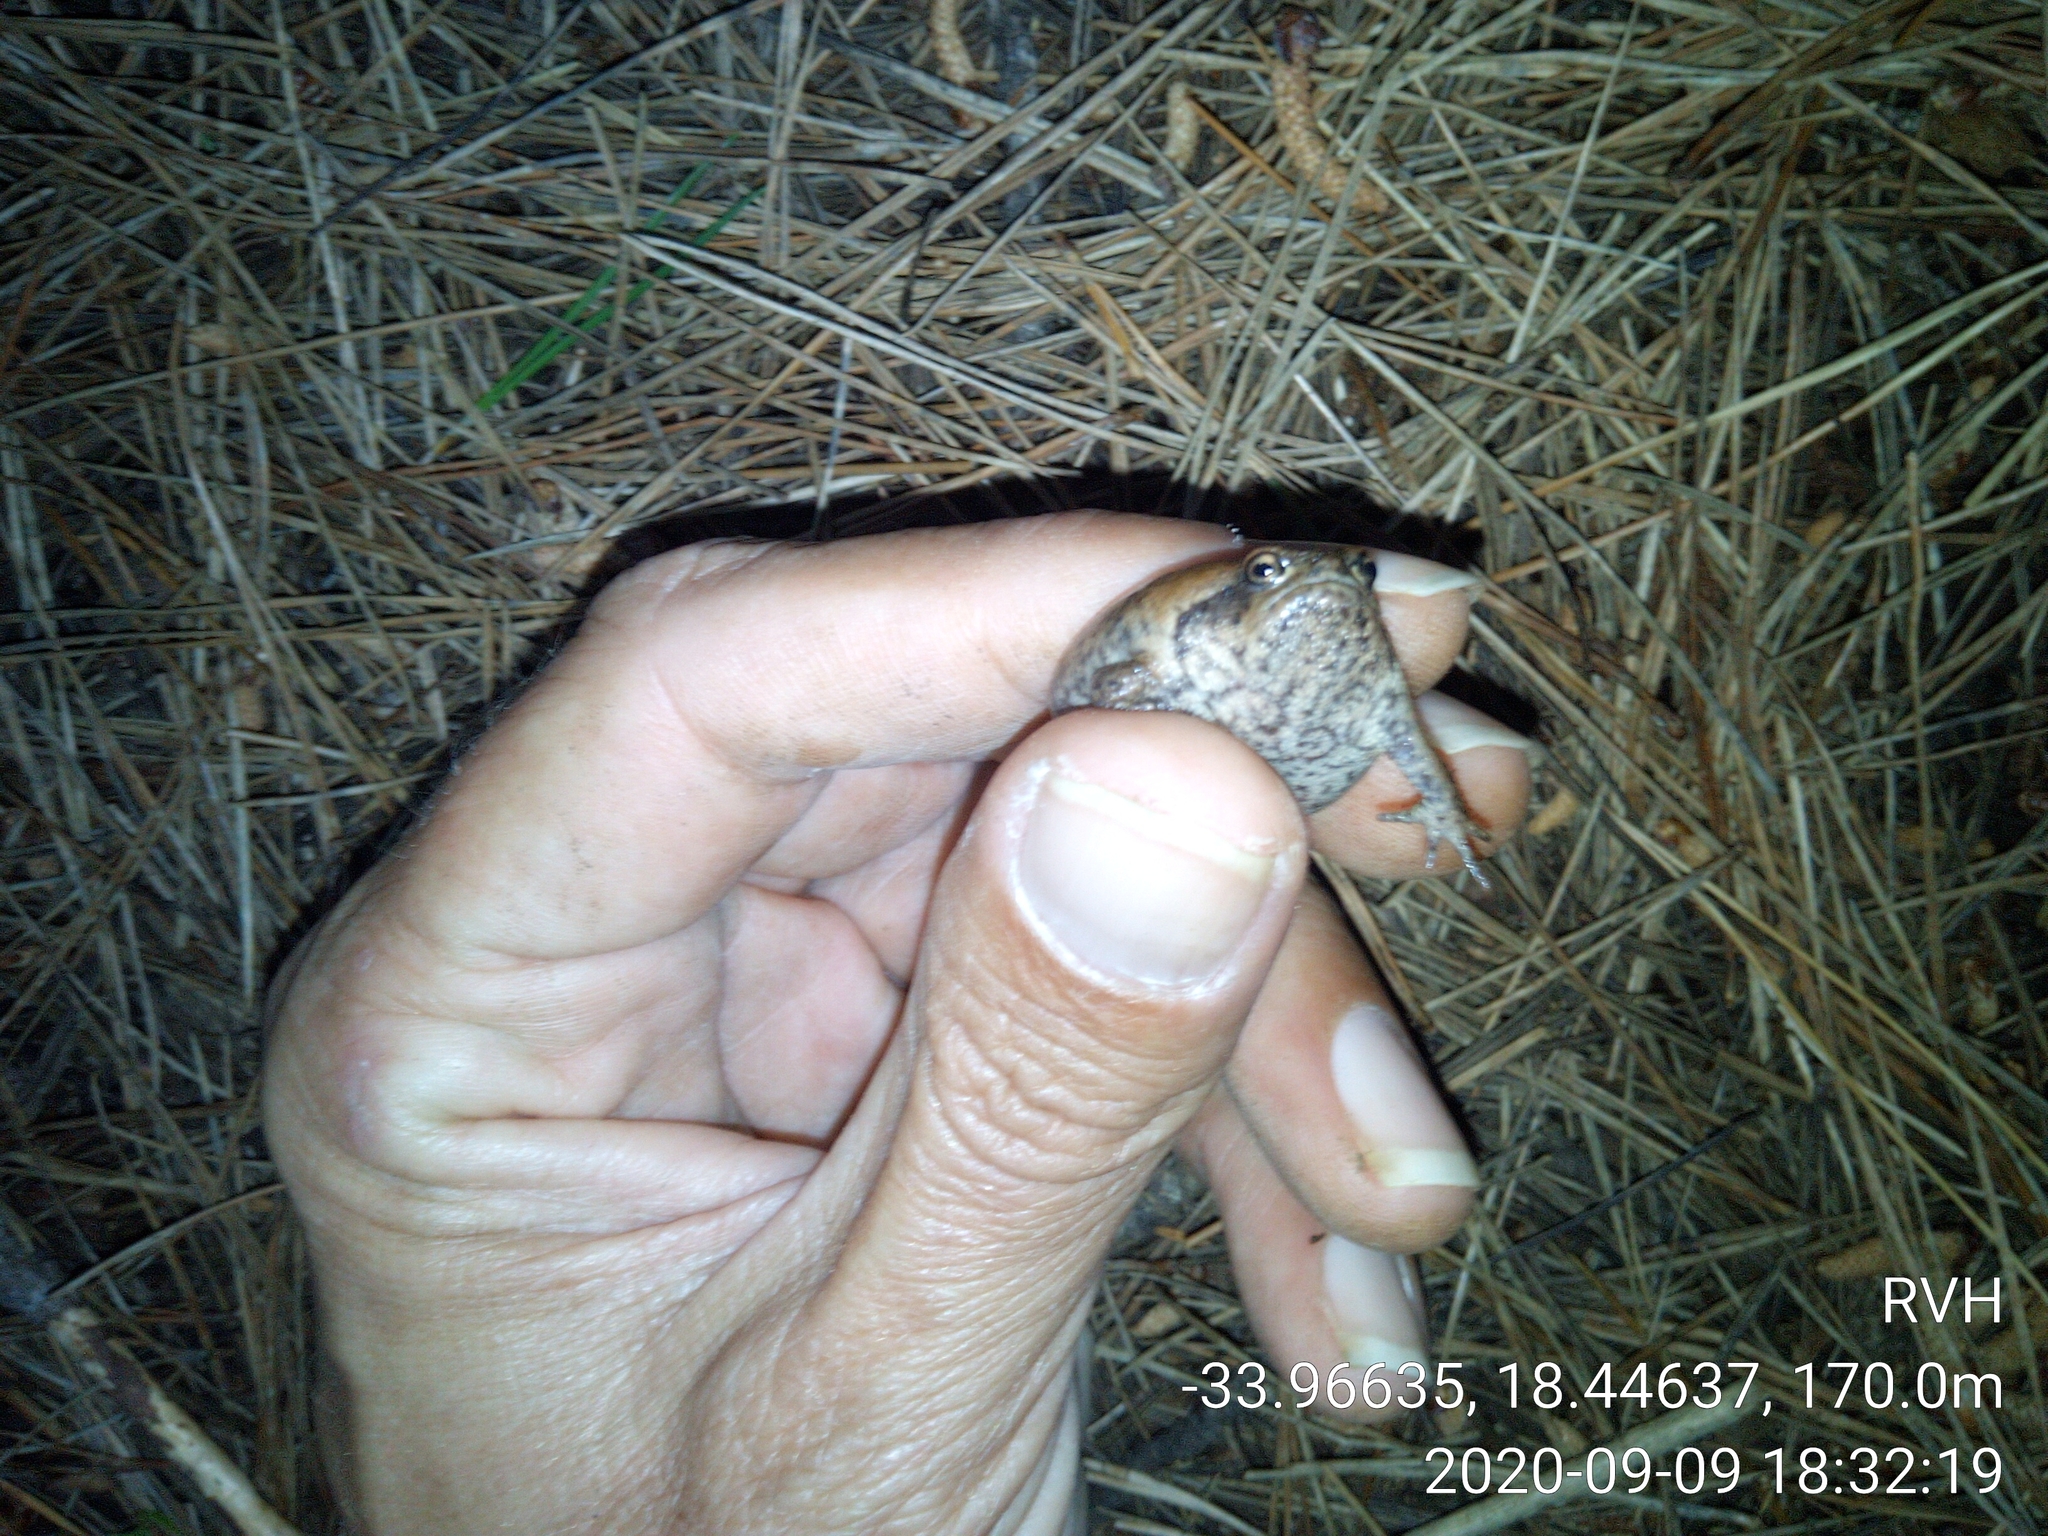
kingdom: Animalia
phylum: Chordata
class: Amphibia
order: Anura
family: Brevicipitidae
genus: Breviceps
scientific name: Breviceps montanus
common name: Mountain rain frog
